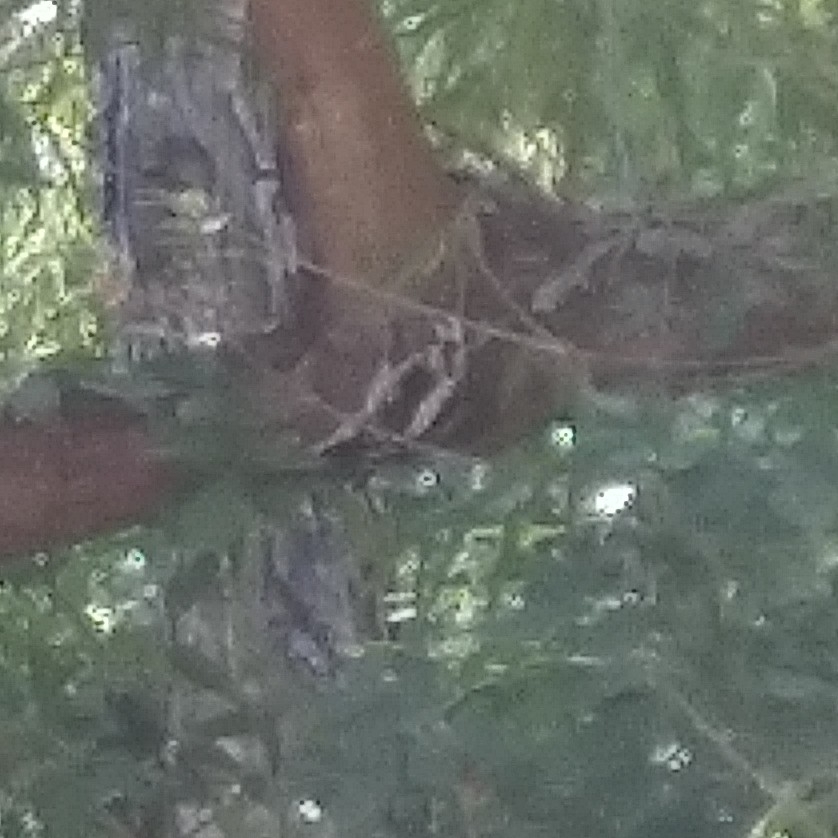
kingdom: Animalia
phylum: Chordata
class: Aves
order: Piciformes
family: Picidae
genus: Dryobates
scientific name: Dryobates pubescens
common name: Downy woodpecker
